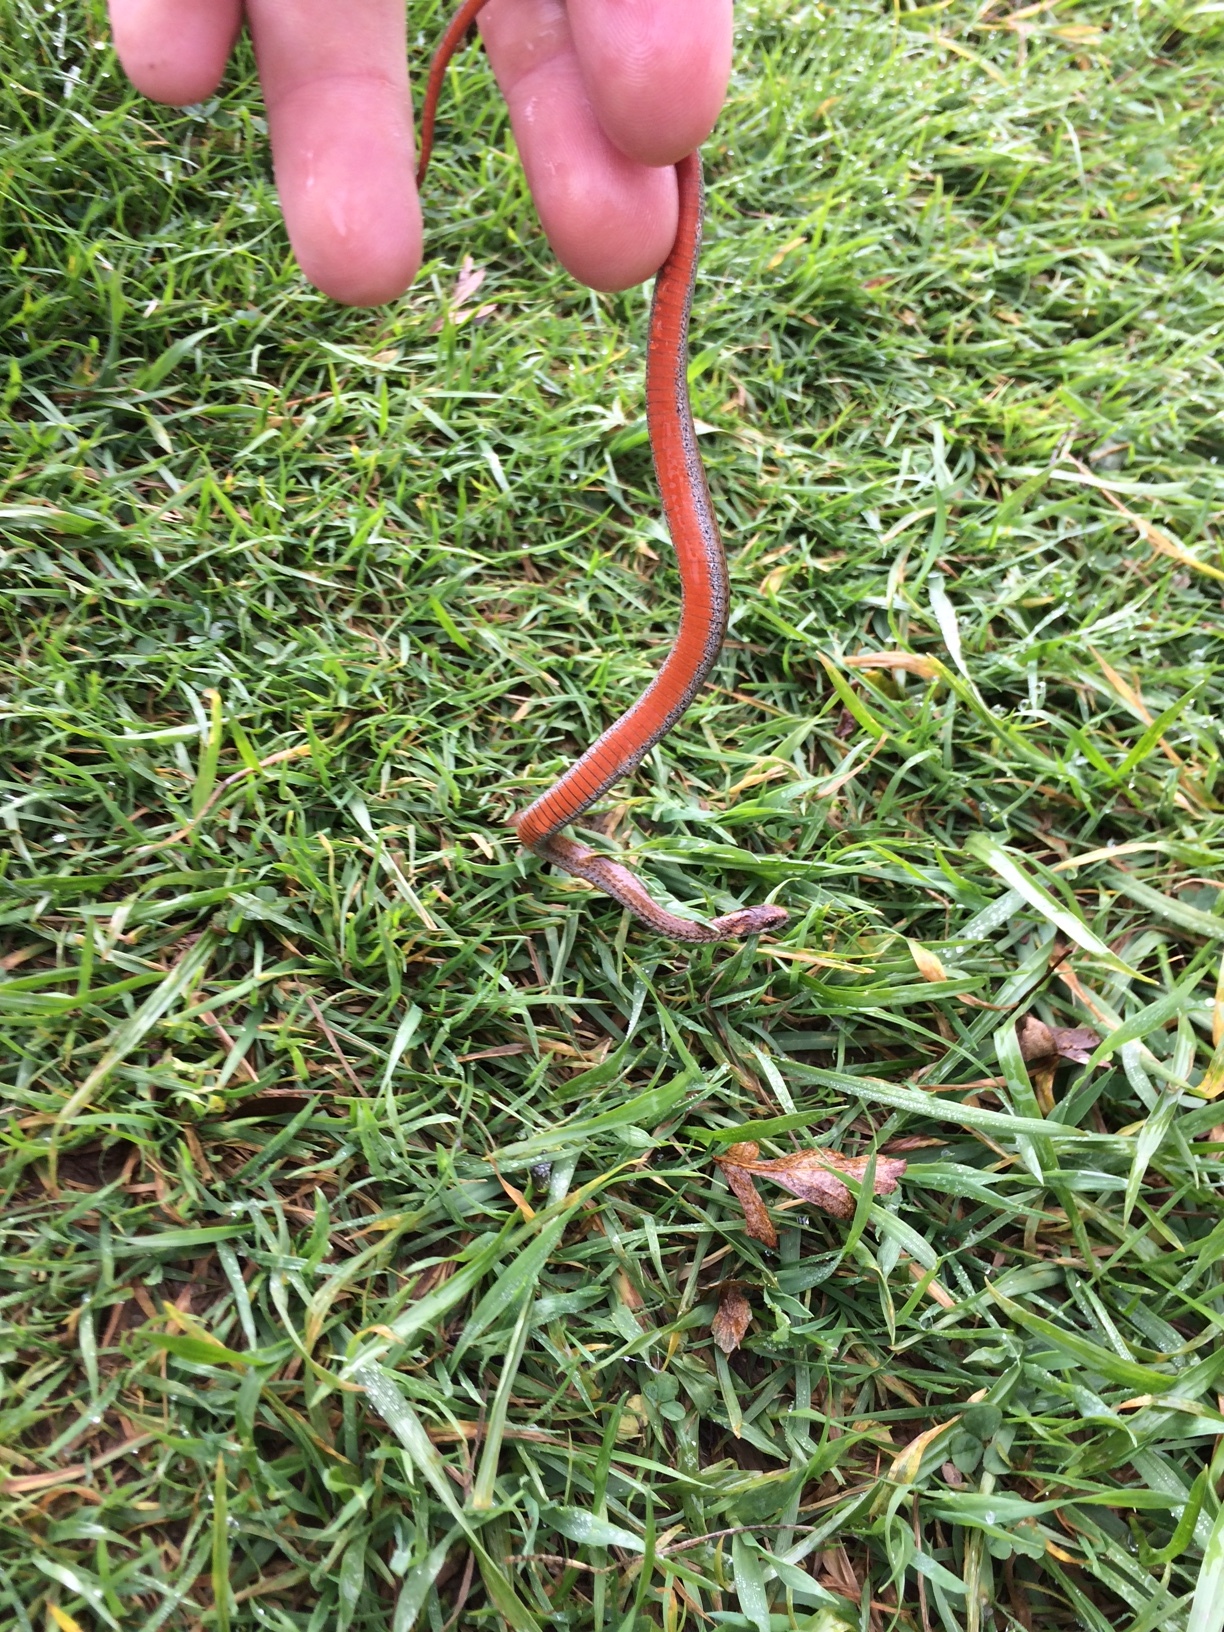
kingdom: Animalia
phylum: Chordata
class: Squamata
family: Colubridae
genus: Storeria
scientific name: Storeria occipitomaculata
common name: Redbelly snake
